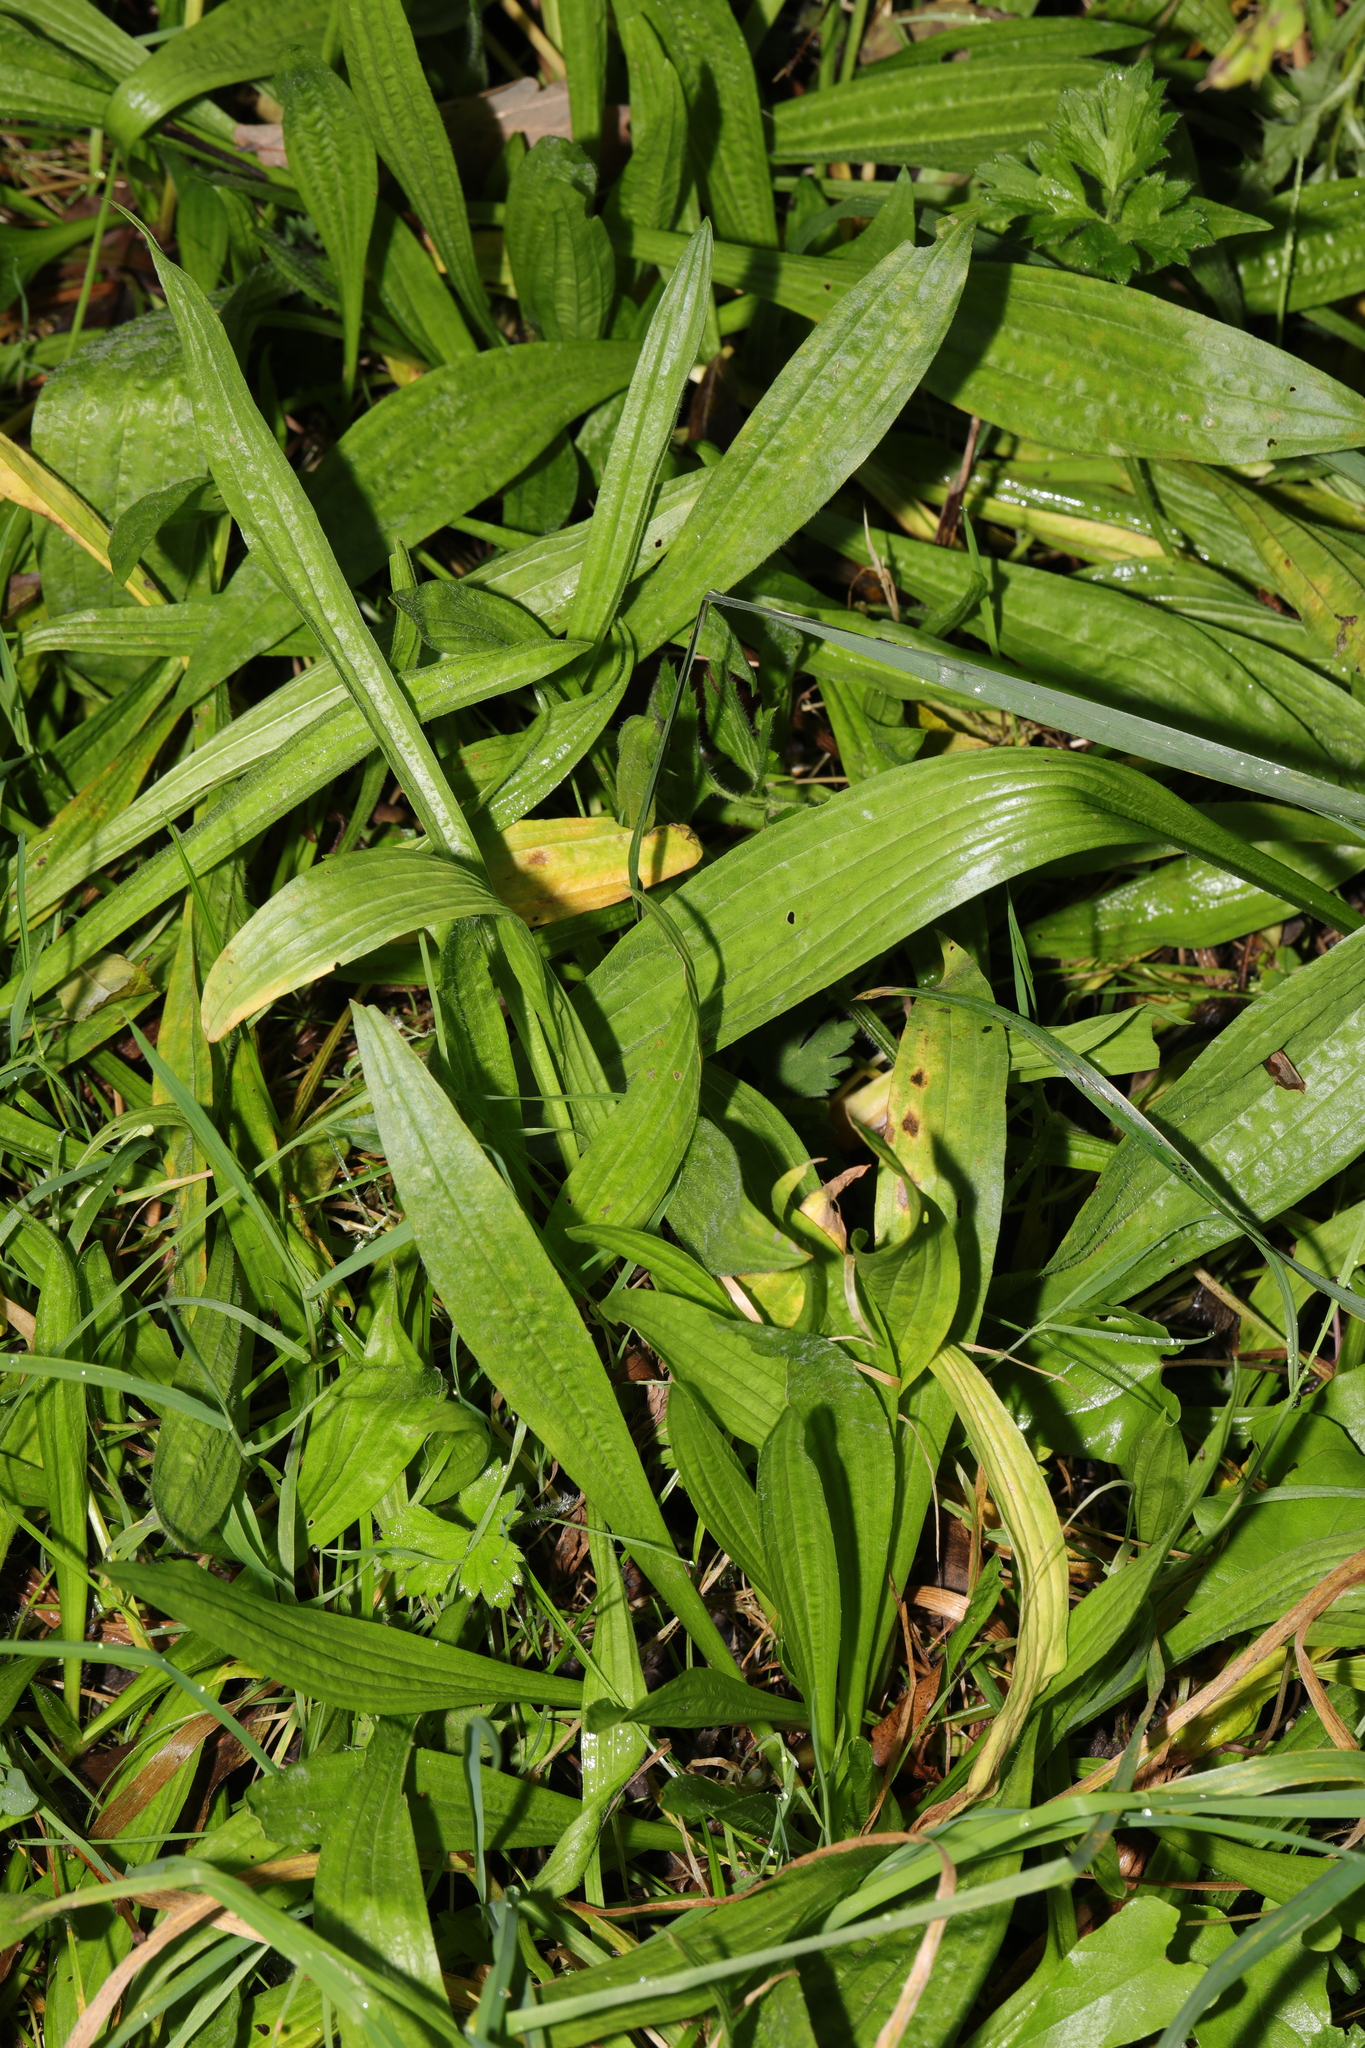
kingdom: Plantae
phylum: Tracheophyta
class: Magnoliopsida
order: Lamiales
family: Plantaginaceae
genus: Plantago
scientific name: Plantago lanceolata
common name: Ribwort plantain
